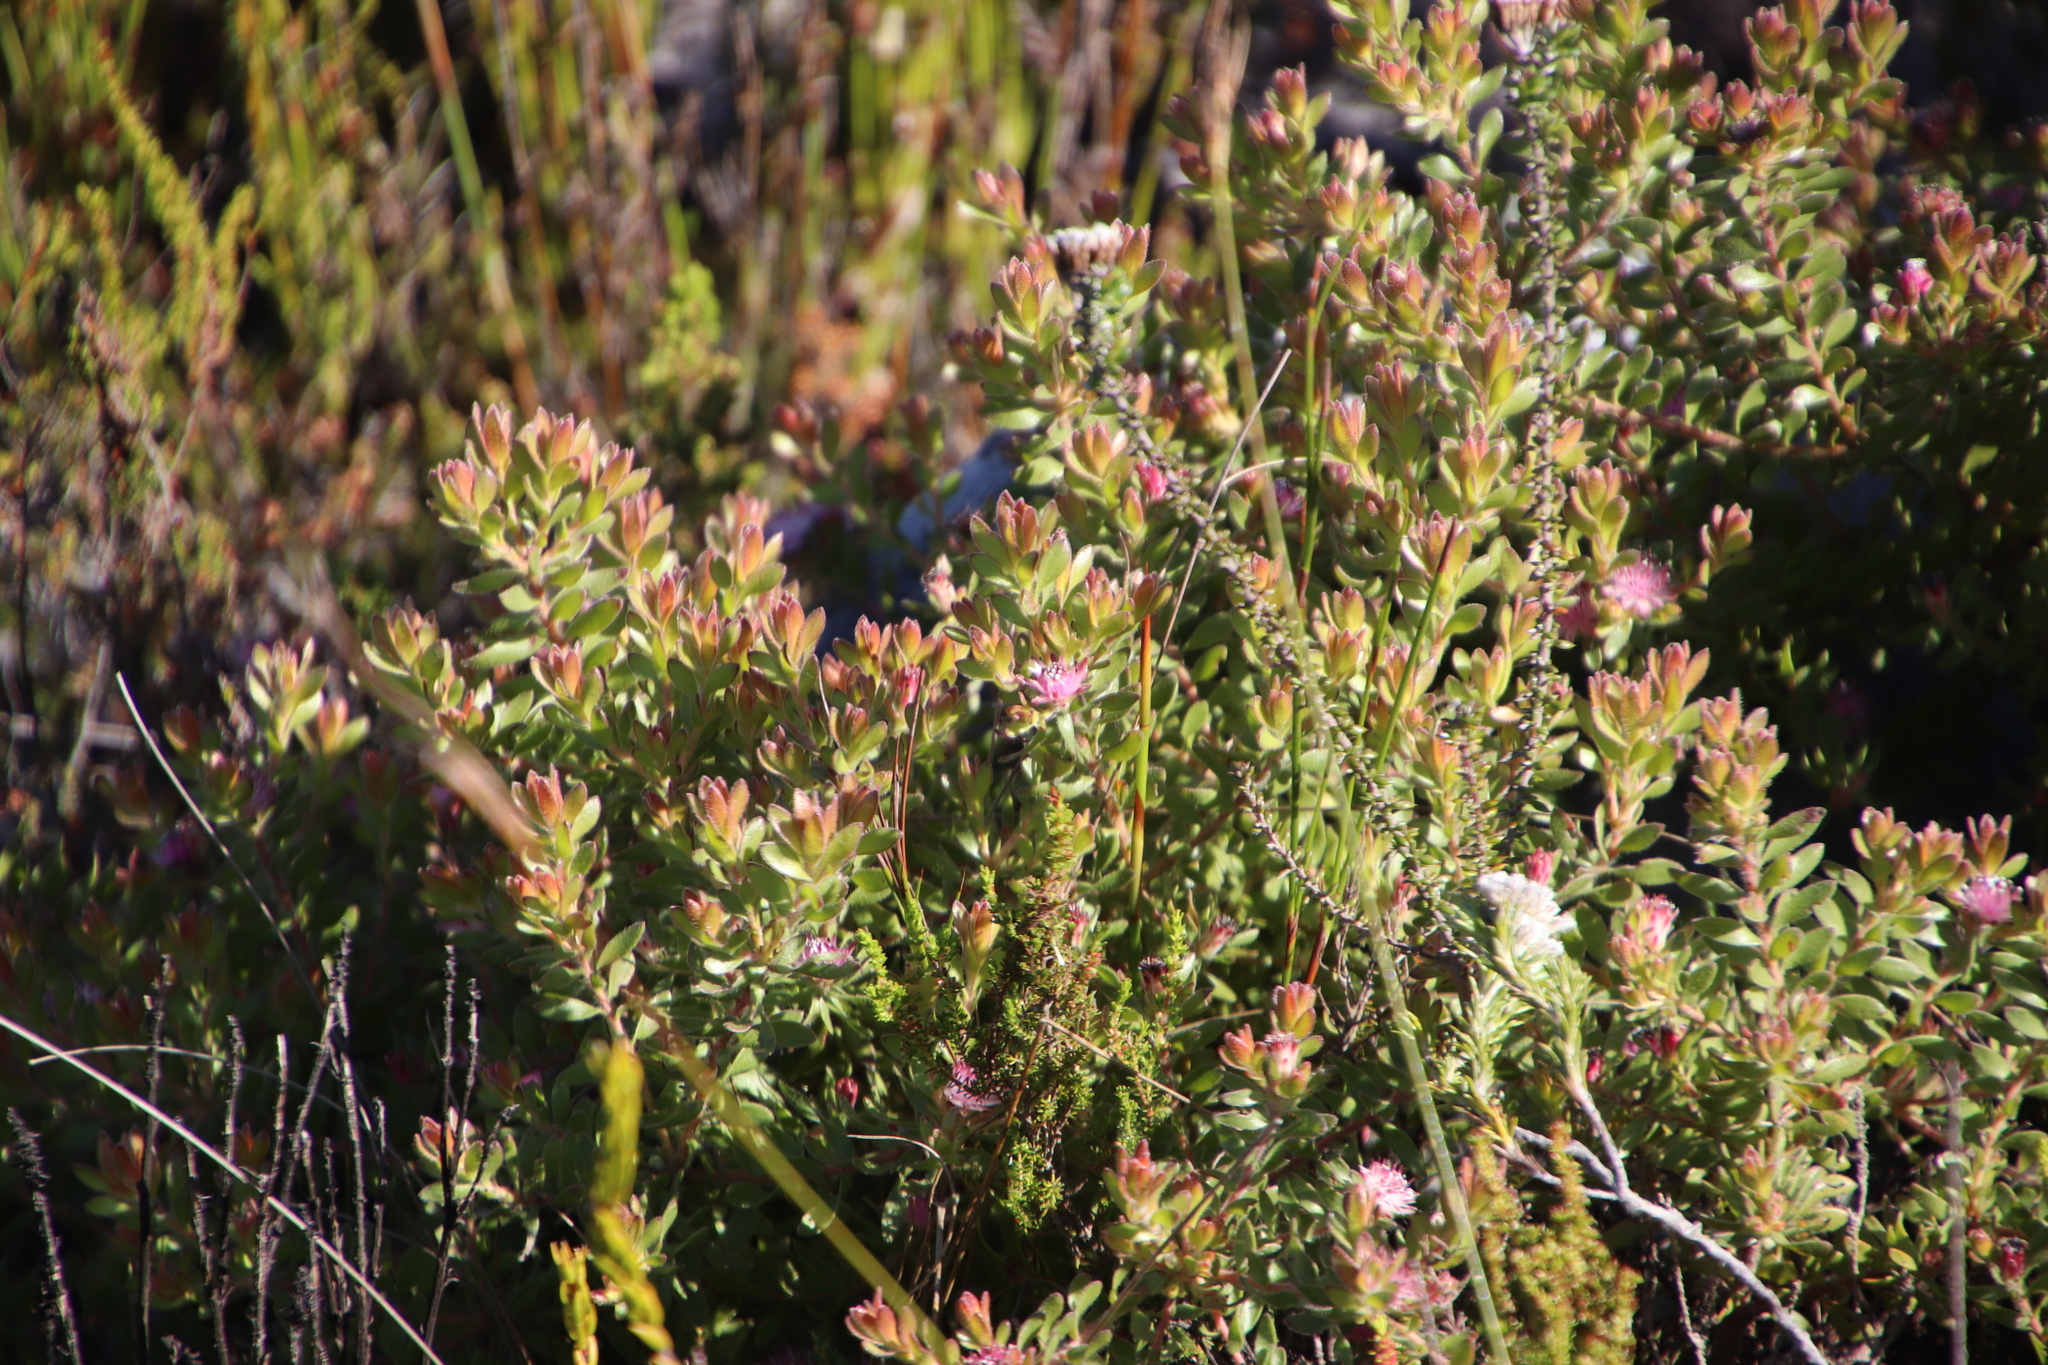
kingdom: Plantae
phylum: Tracheophyta
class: Magnoliopsida
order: Proteales
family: Proteaceae
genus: Diastella
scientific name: Diastella divaricata
